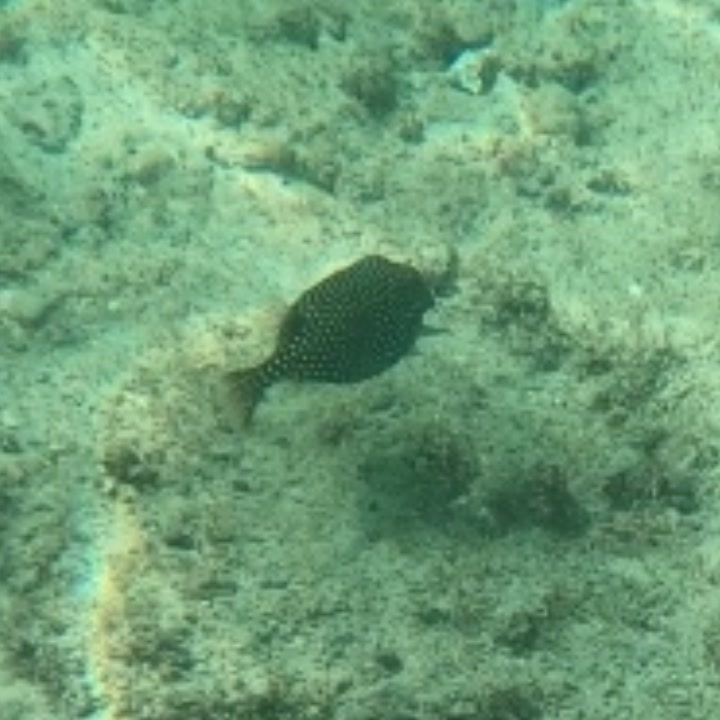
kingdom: Animalia
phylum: Chordata
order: Tetraodontiformes
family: Ostraciidae
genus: Ostracion
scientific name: Ostracion meleagris
